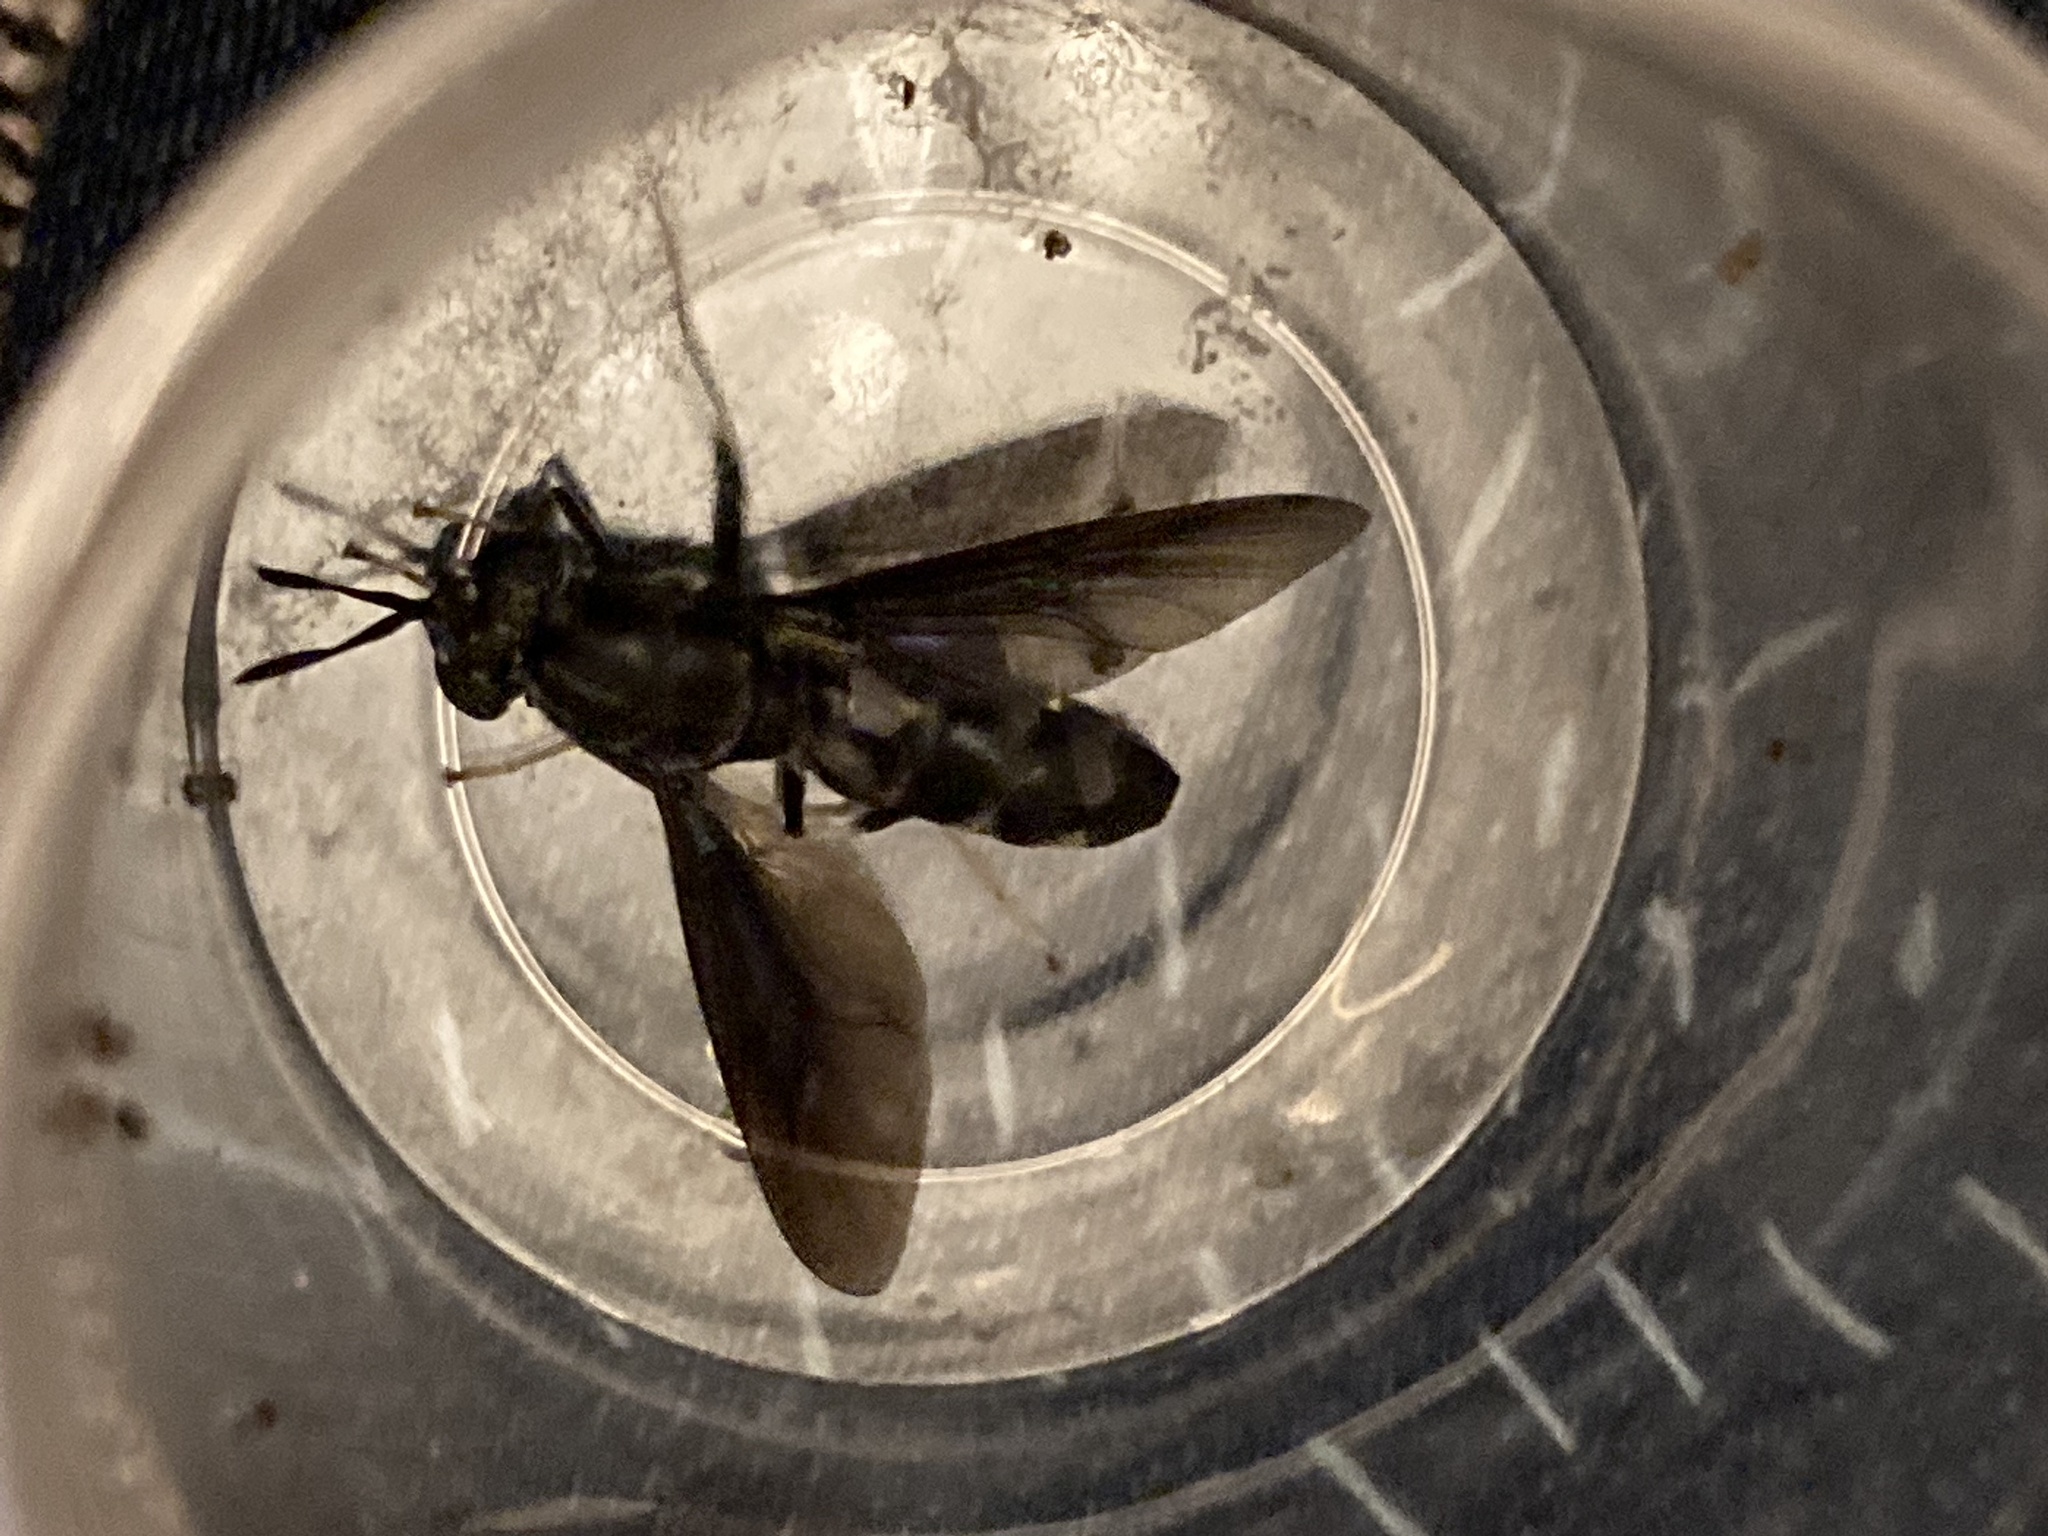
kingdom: Animalia
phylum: Arthropoda
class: Insecta
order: Diptera
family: Stratiomyidae
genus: Hermetia
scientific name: Hermetia illucens
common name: Black soldier fly
